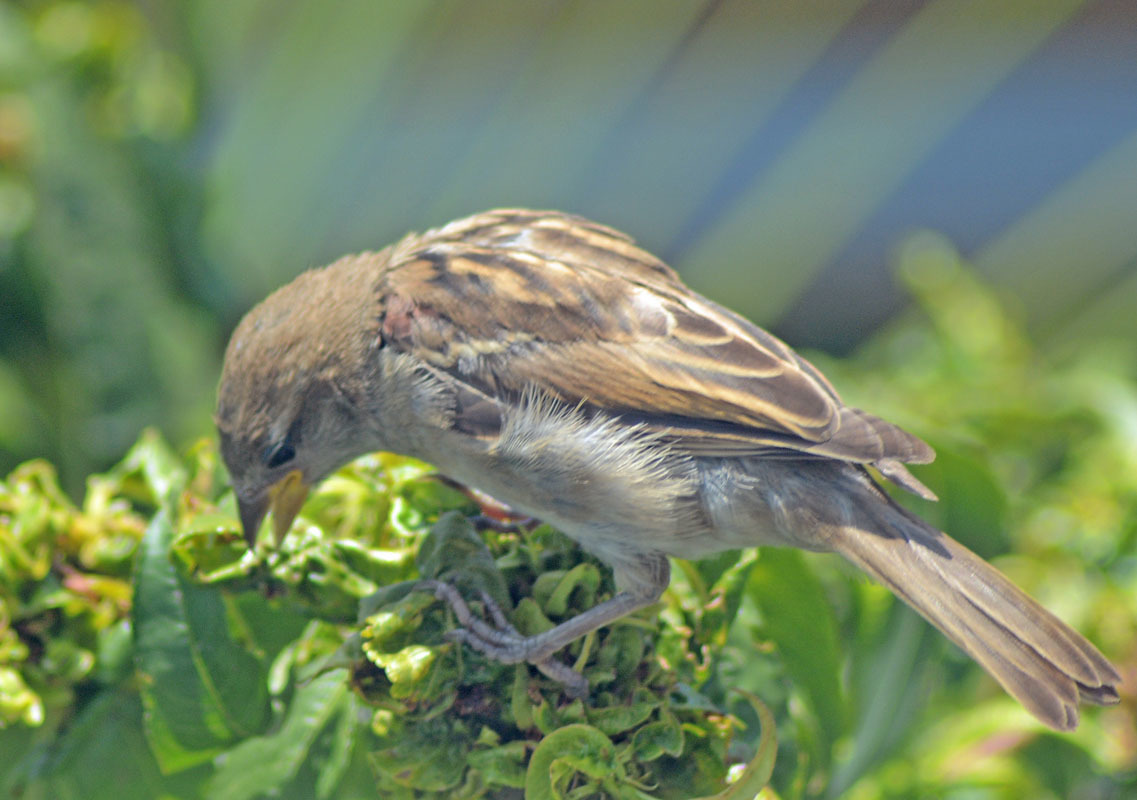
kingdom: Animalia
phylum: Chordata
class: Aves
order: Passeriformes
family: Passeridae
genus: Passer
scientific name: Passer domesticus
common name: House sparrow
